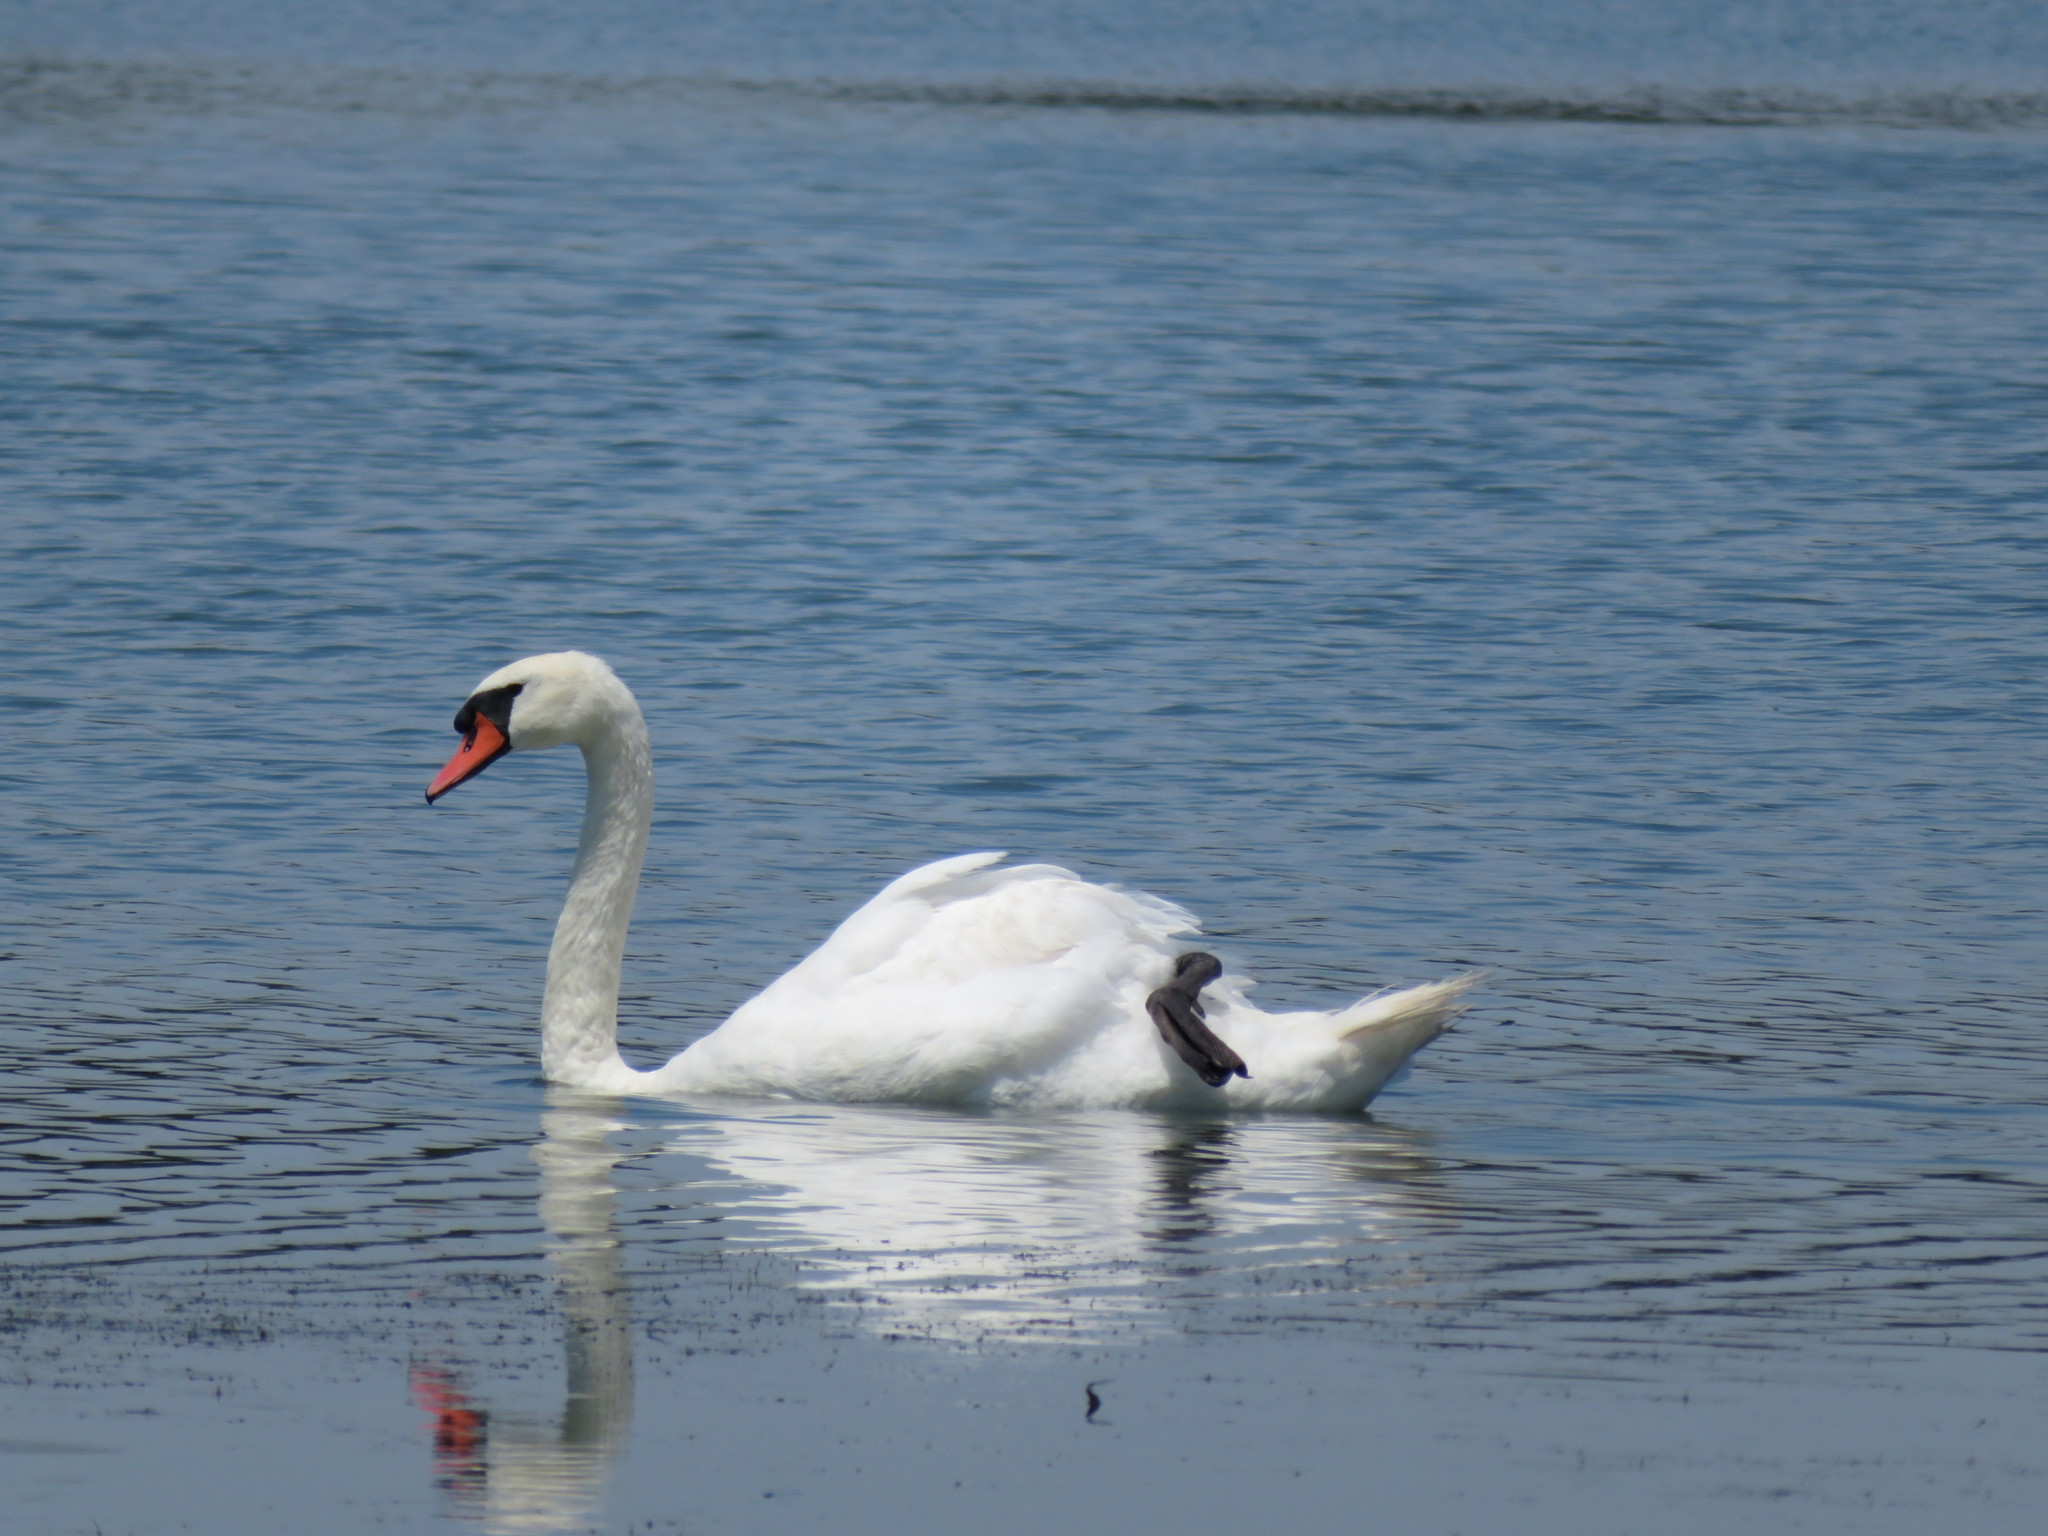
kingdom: Animalia
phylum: Chordata
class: Aves
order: Anseriformes
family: Anatidae
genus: Cygnus
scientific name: Cygnus olor
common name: Mute swan
